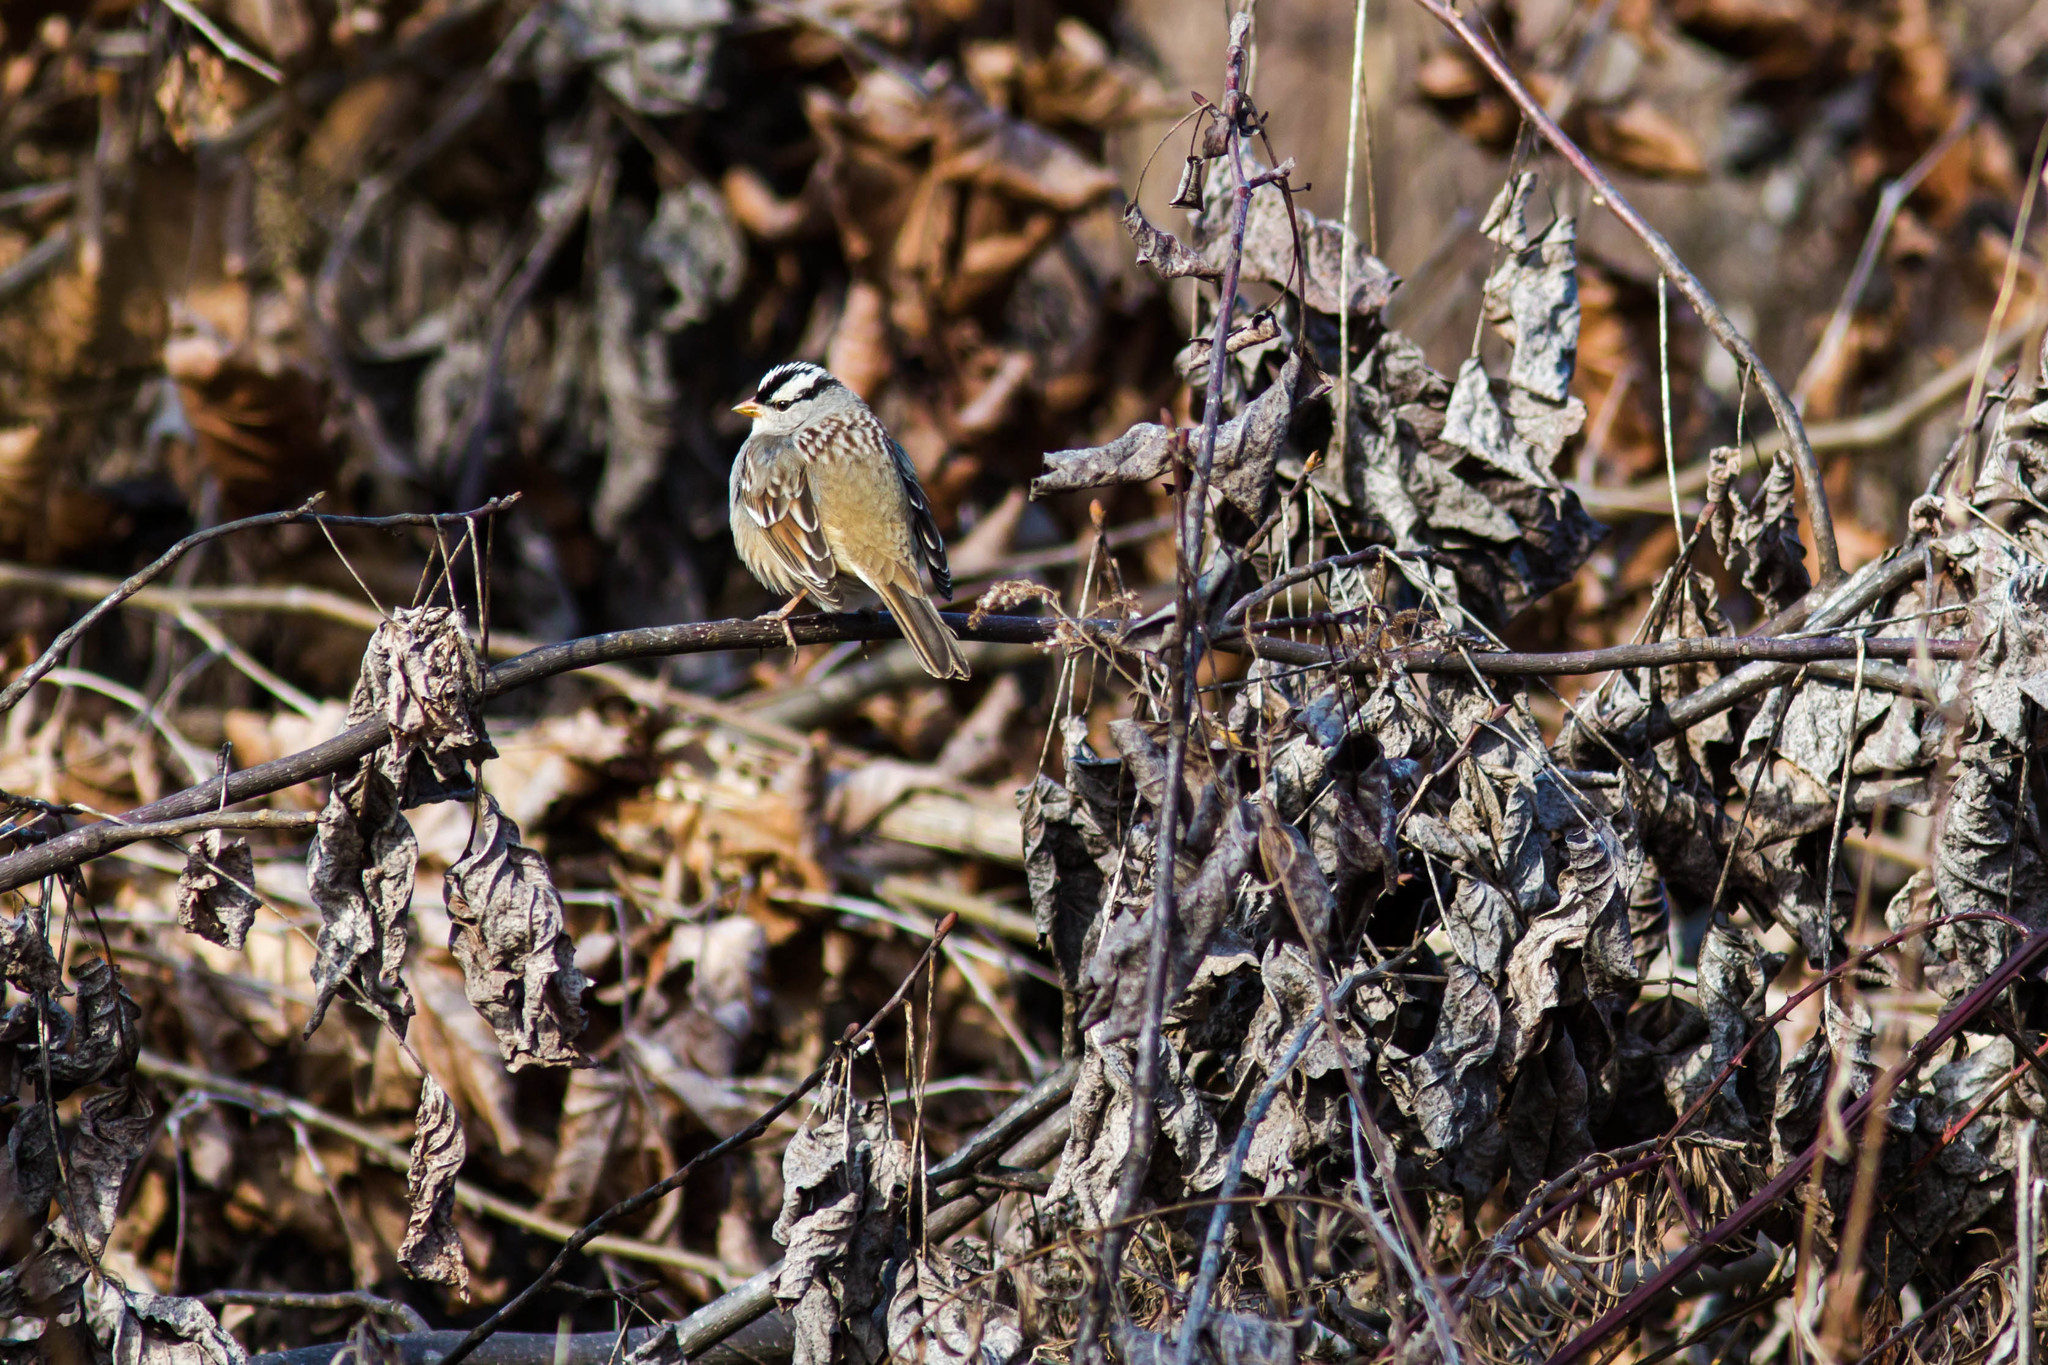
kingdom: Animalia
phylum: Chordata
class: Aves
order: Passeriformes
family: Passerellidae
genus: Zonotrichia
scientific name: Zonotrichia leucophrys
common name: White-crowned sparrow
